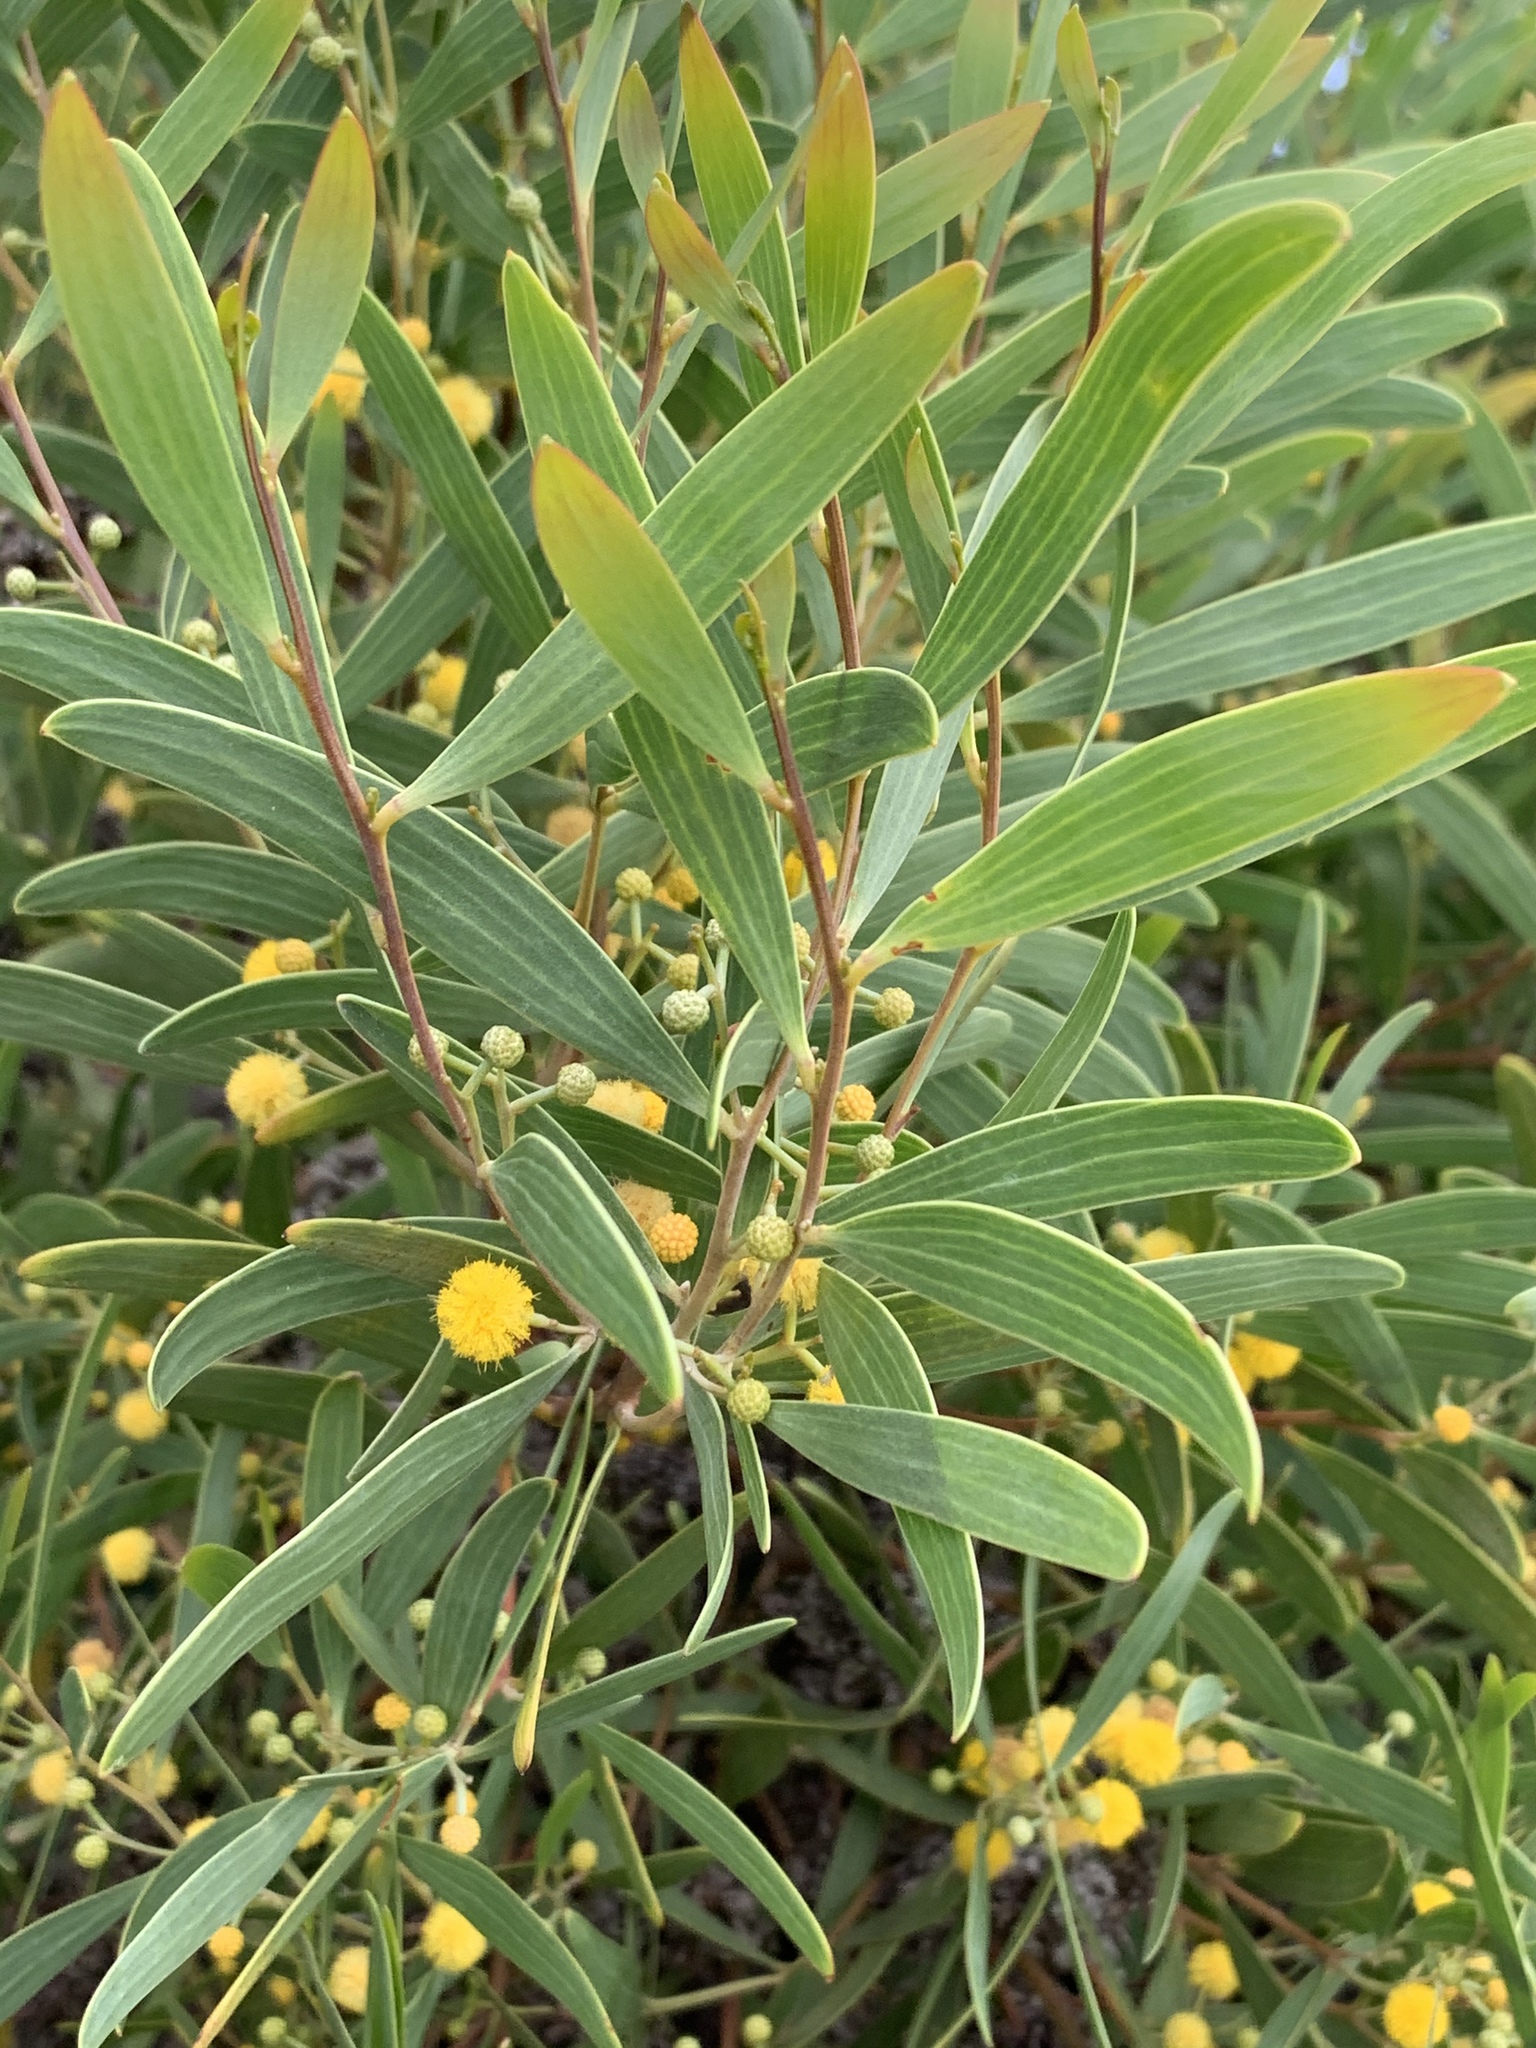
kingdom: Plantae
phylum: Tracheophyta
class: Magnoliopsida
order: Fabales
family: Fabaceae
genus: Acacia
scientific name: Acacia cyclops
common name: Coastal wattle
